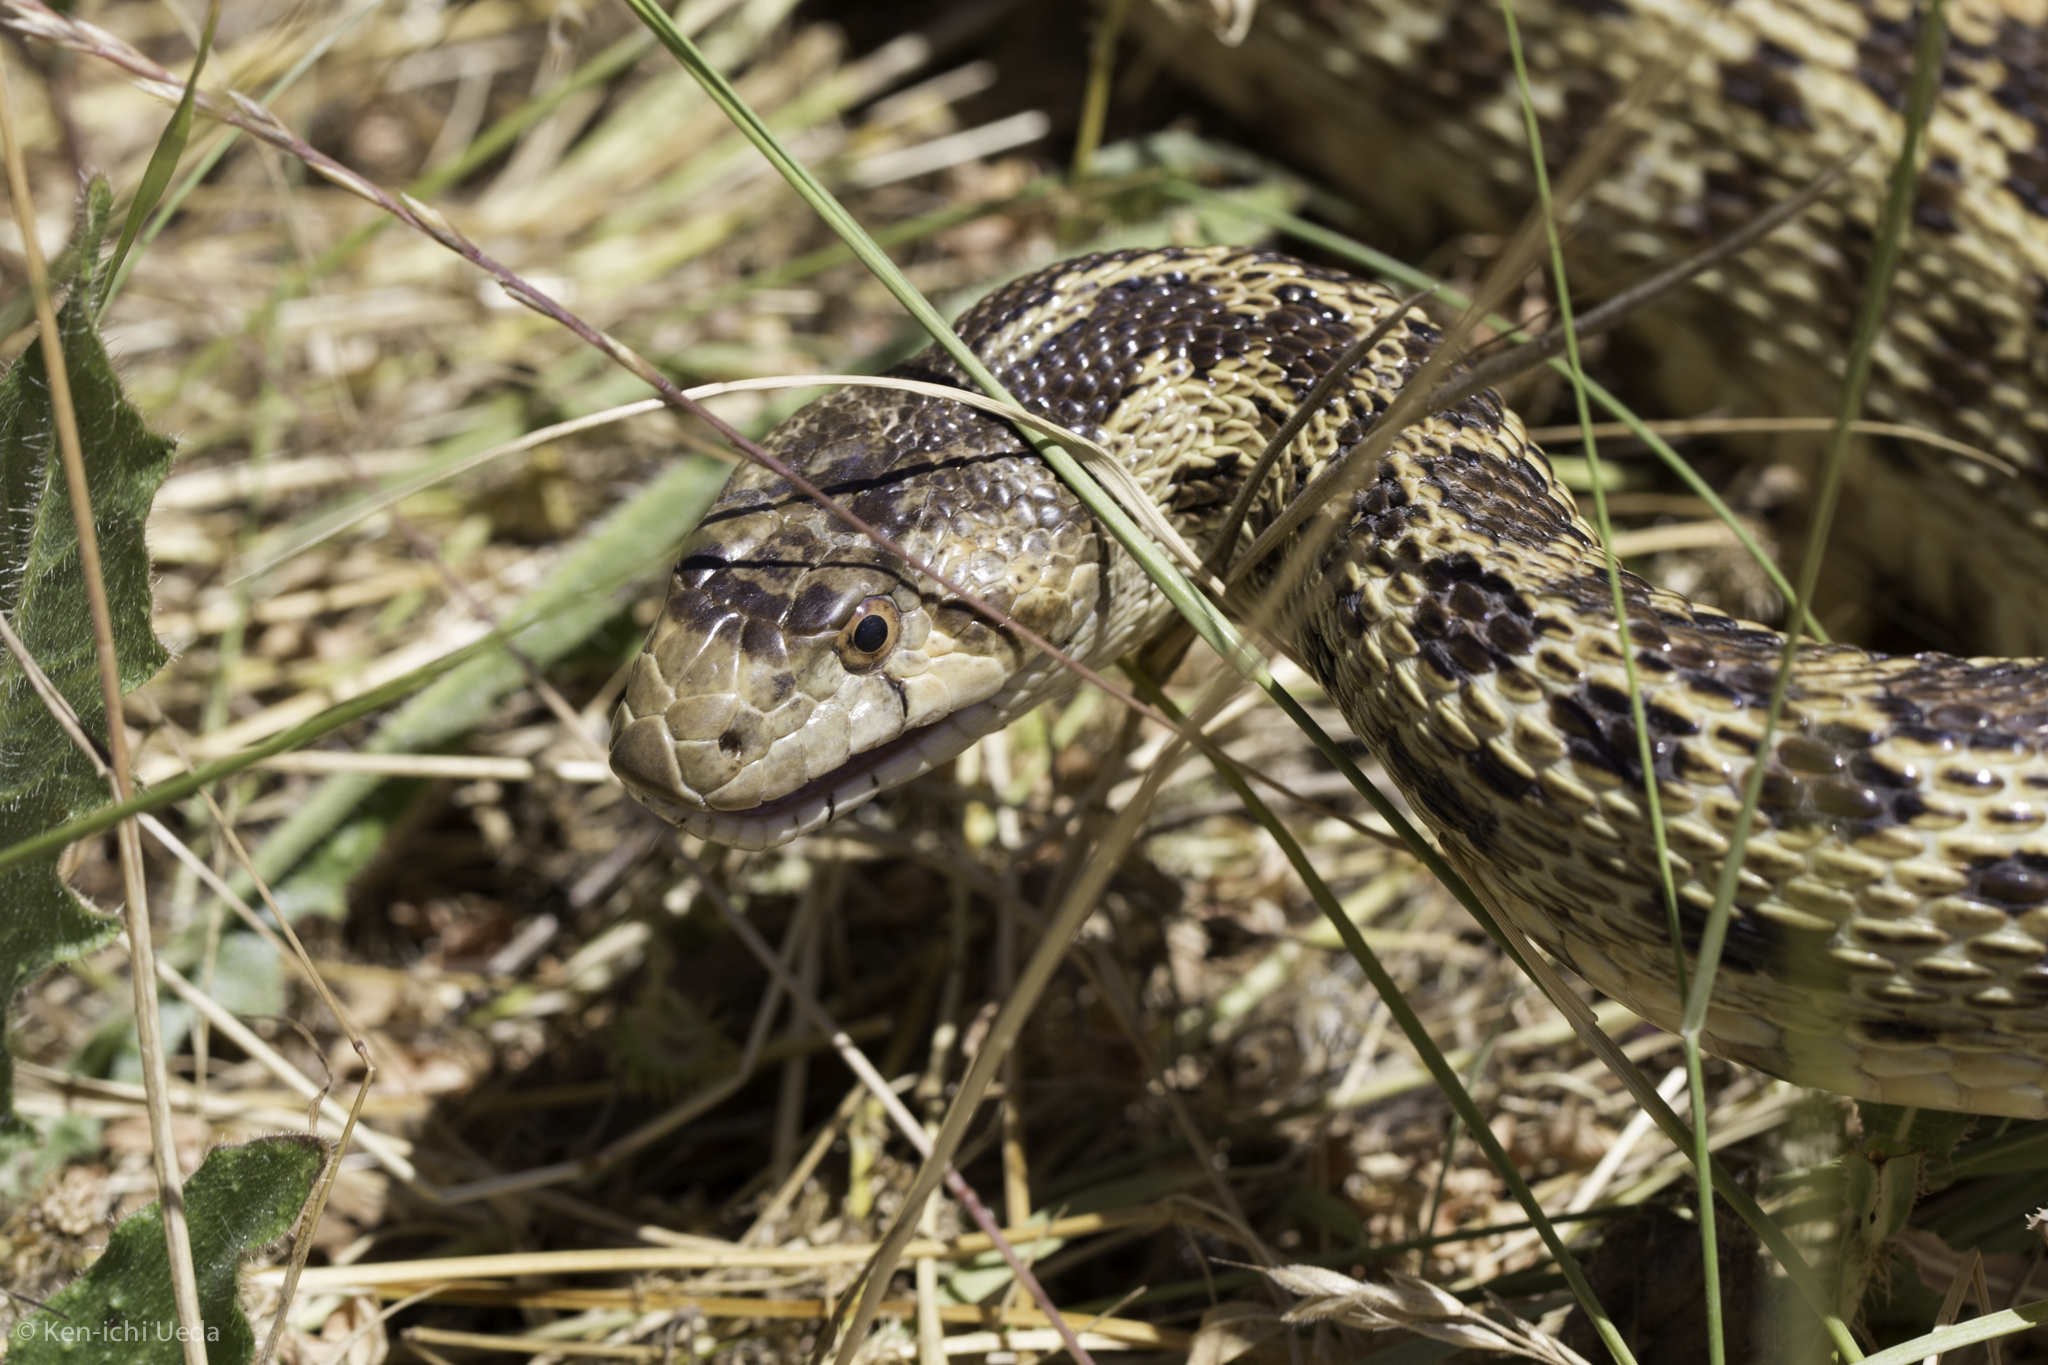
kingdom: Animalia
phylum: Chordata
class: Squamata
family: Colubridae
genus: Pituophis
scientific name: Pituophis catenifer
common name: Gopher snake
